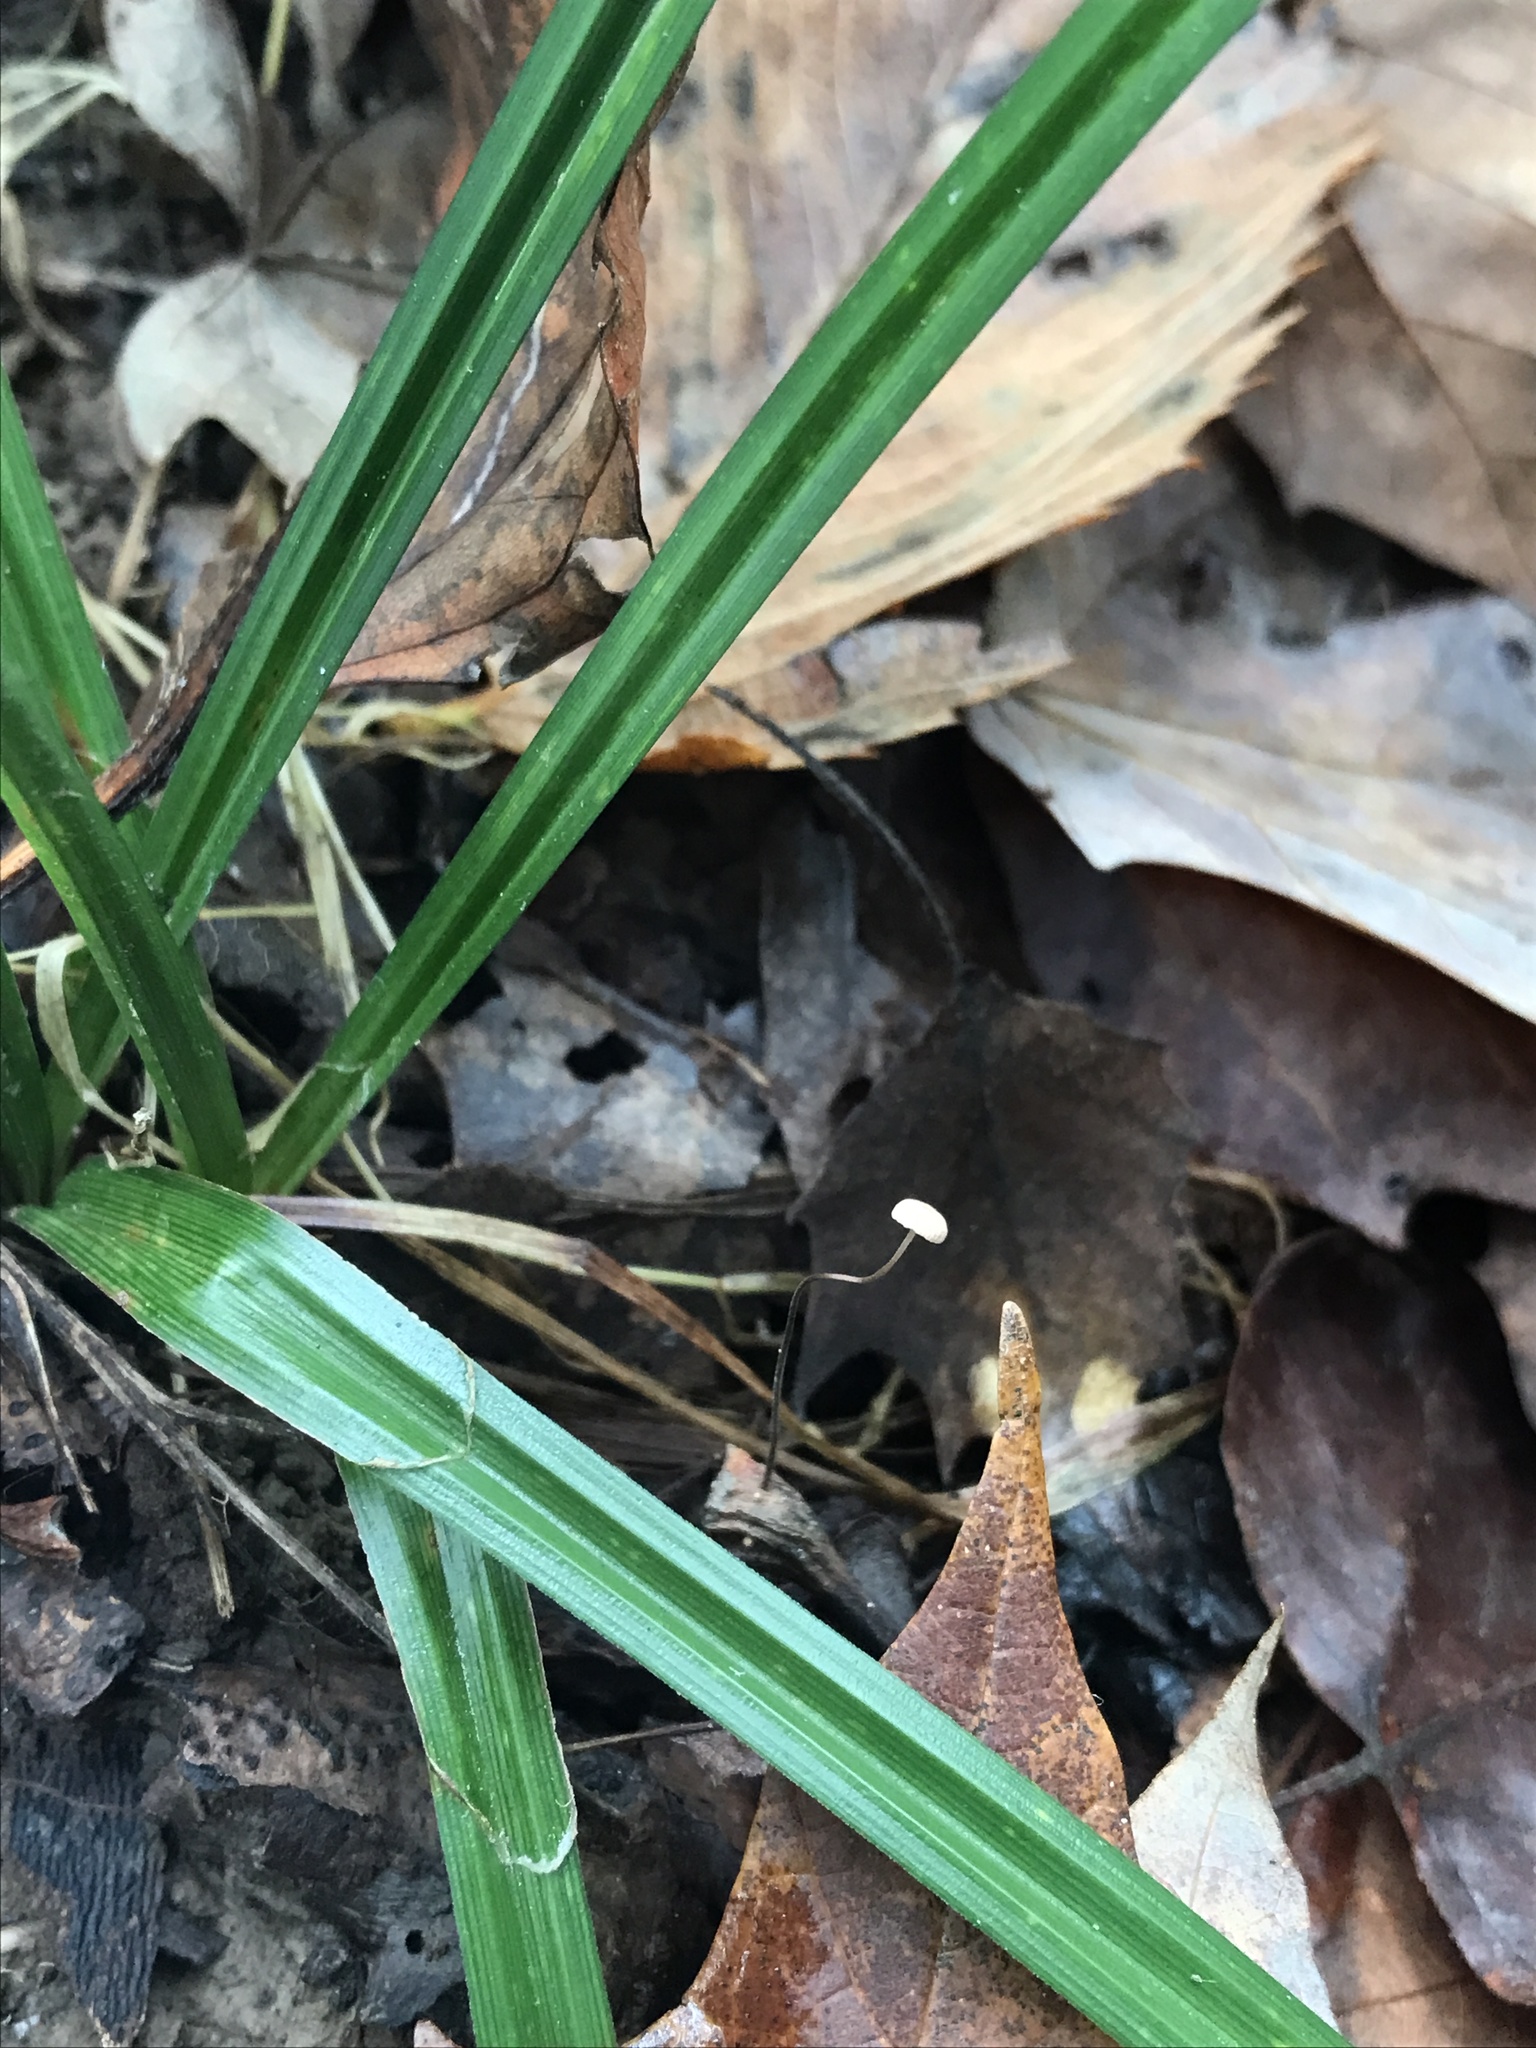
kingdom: Fungi
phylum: Basidiomycota
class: Agaricomycetes
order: Agaricales
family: Marasmiaceae
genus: Marasmius
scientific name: Marasmius felix
